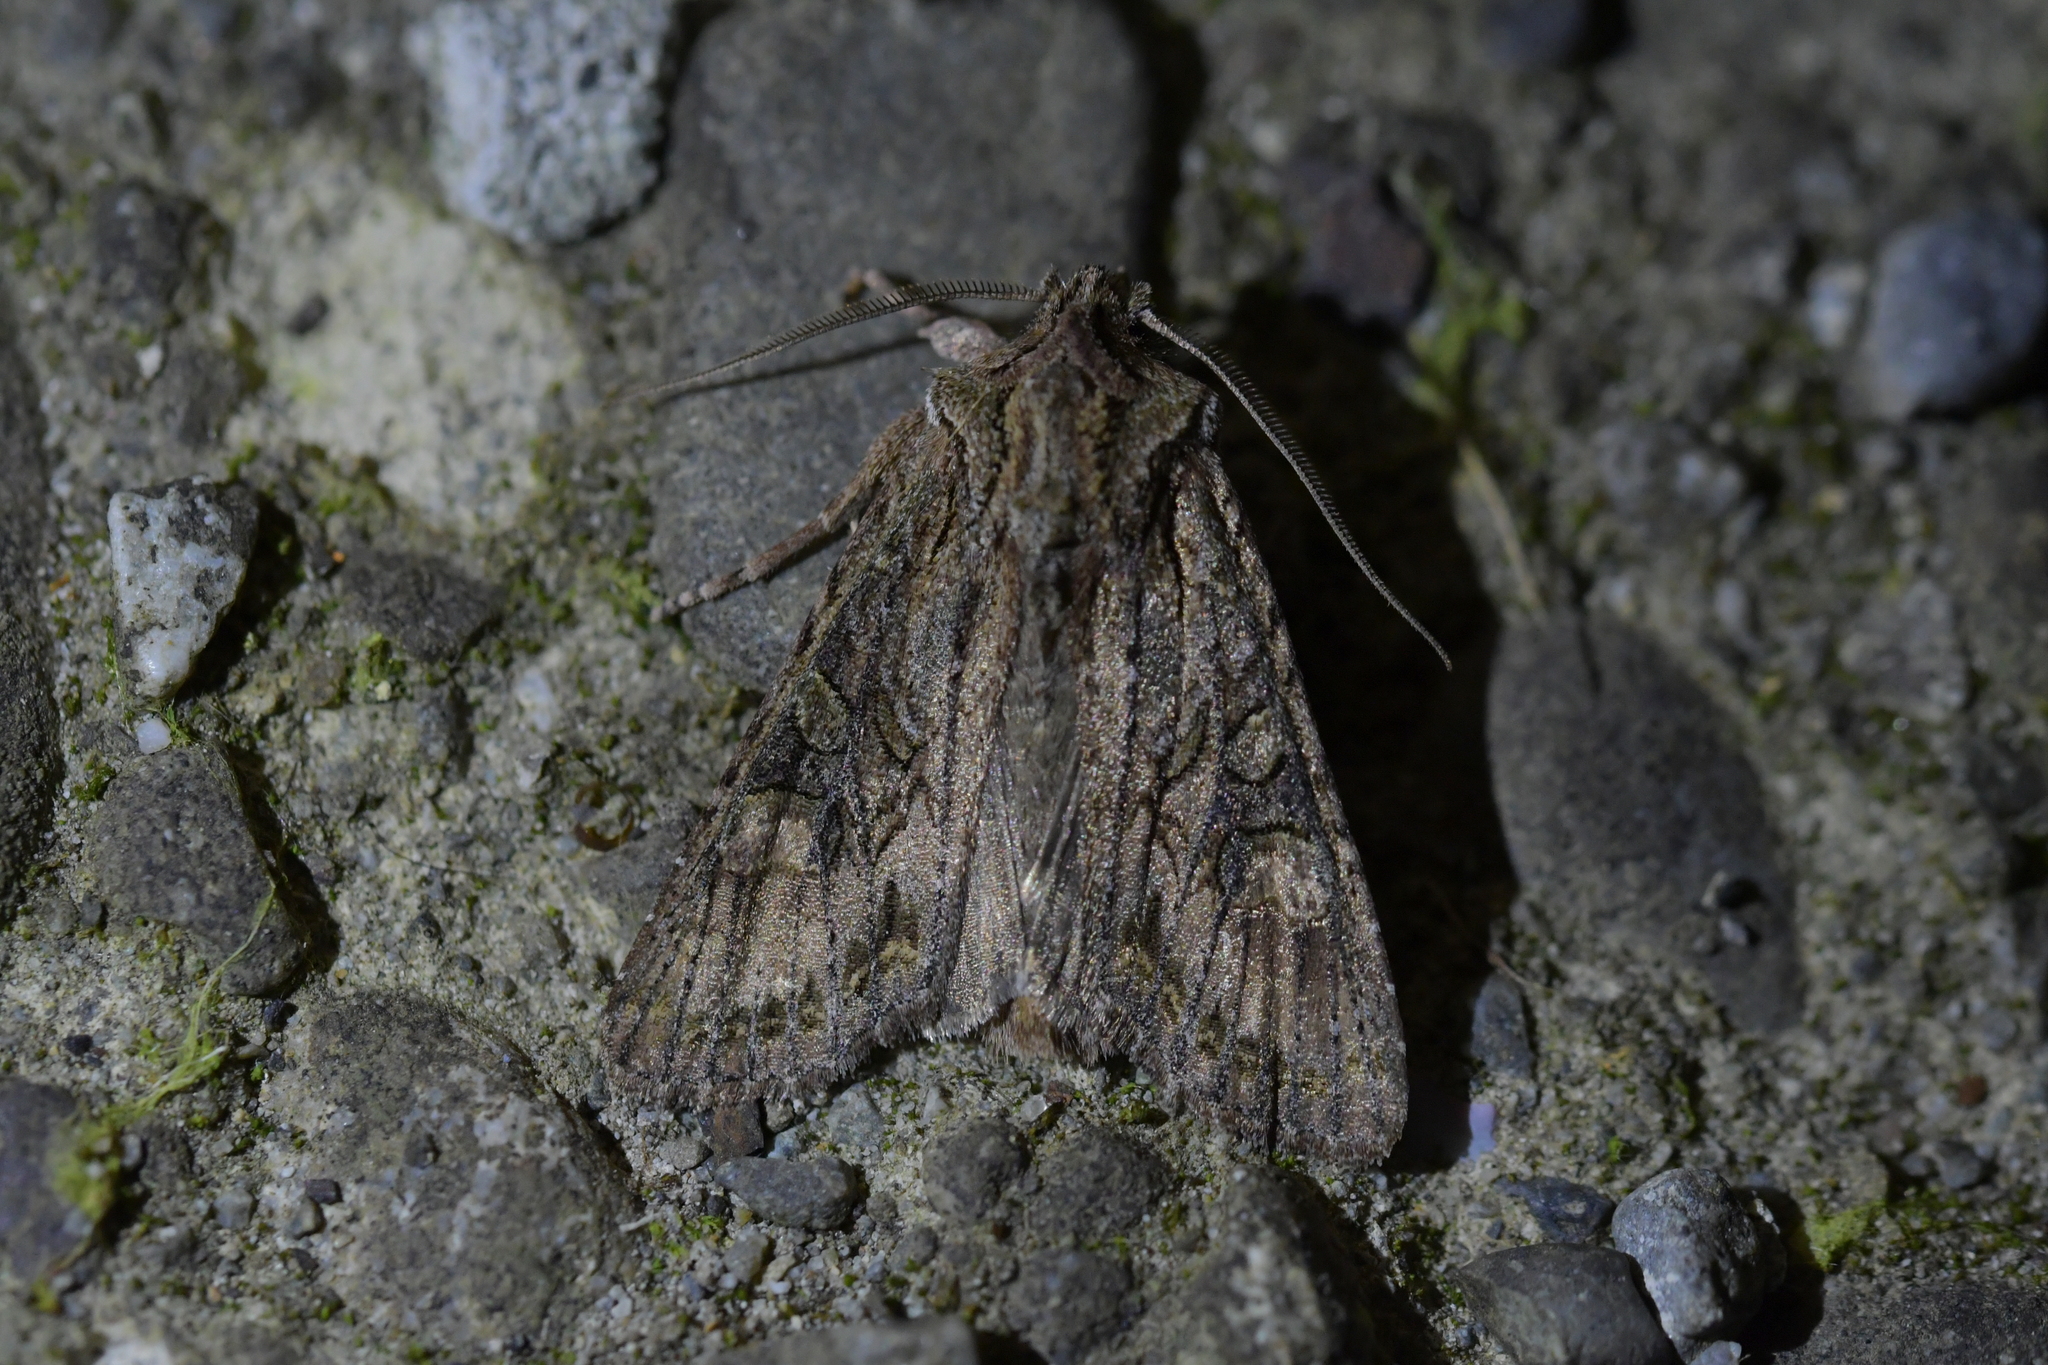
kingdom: Animalia
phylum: Arthropoda
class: Insecta
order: Lepidoptera
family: Noctuidae
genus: Ichneutica
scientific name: Ichneutica mutans
